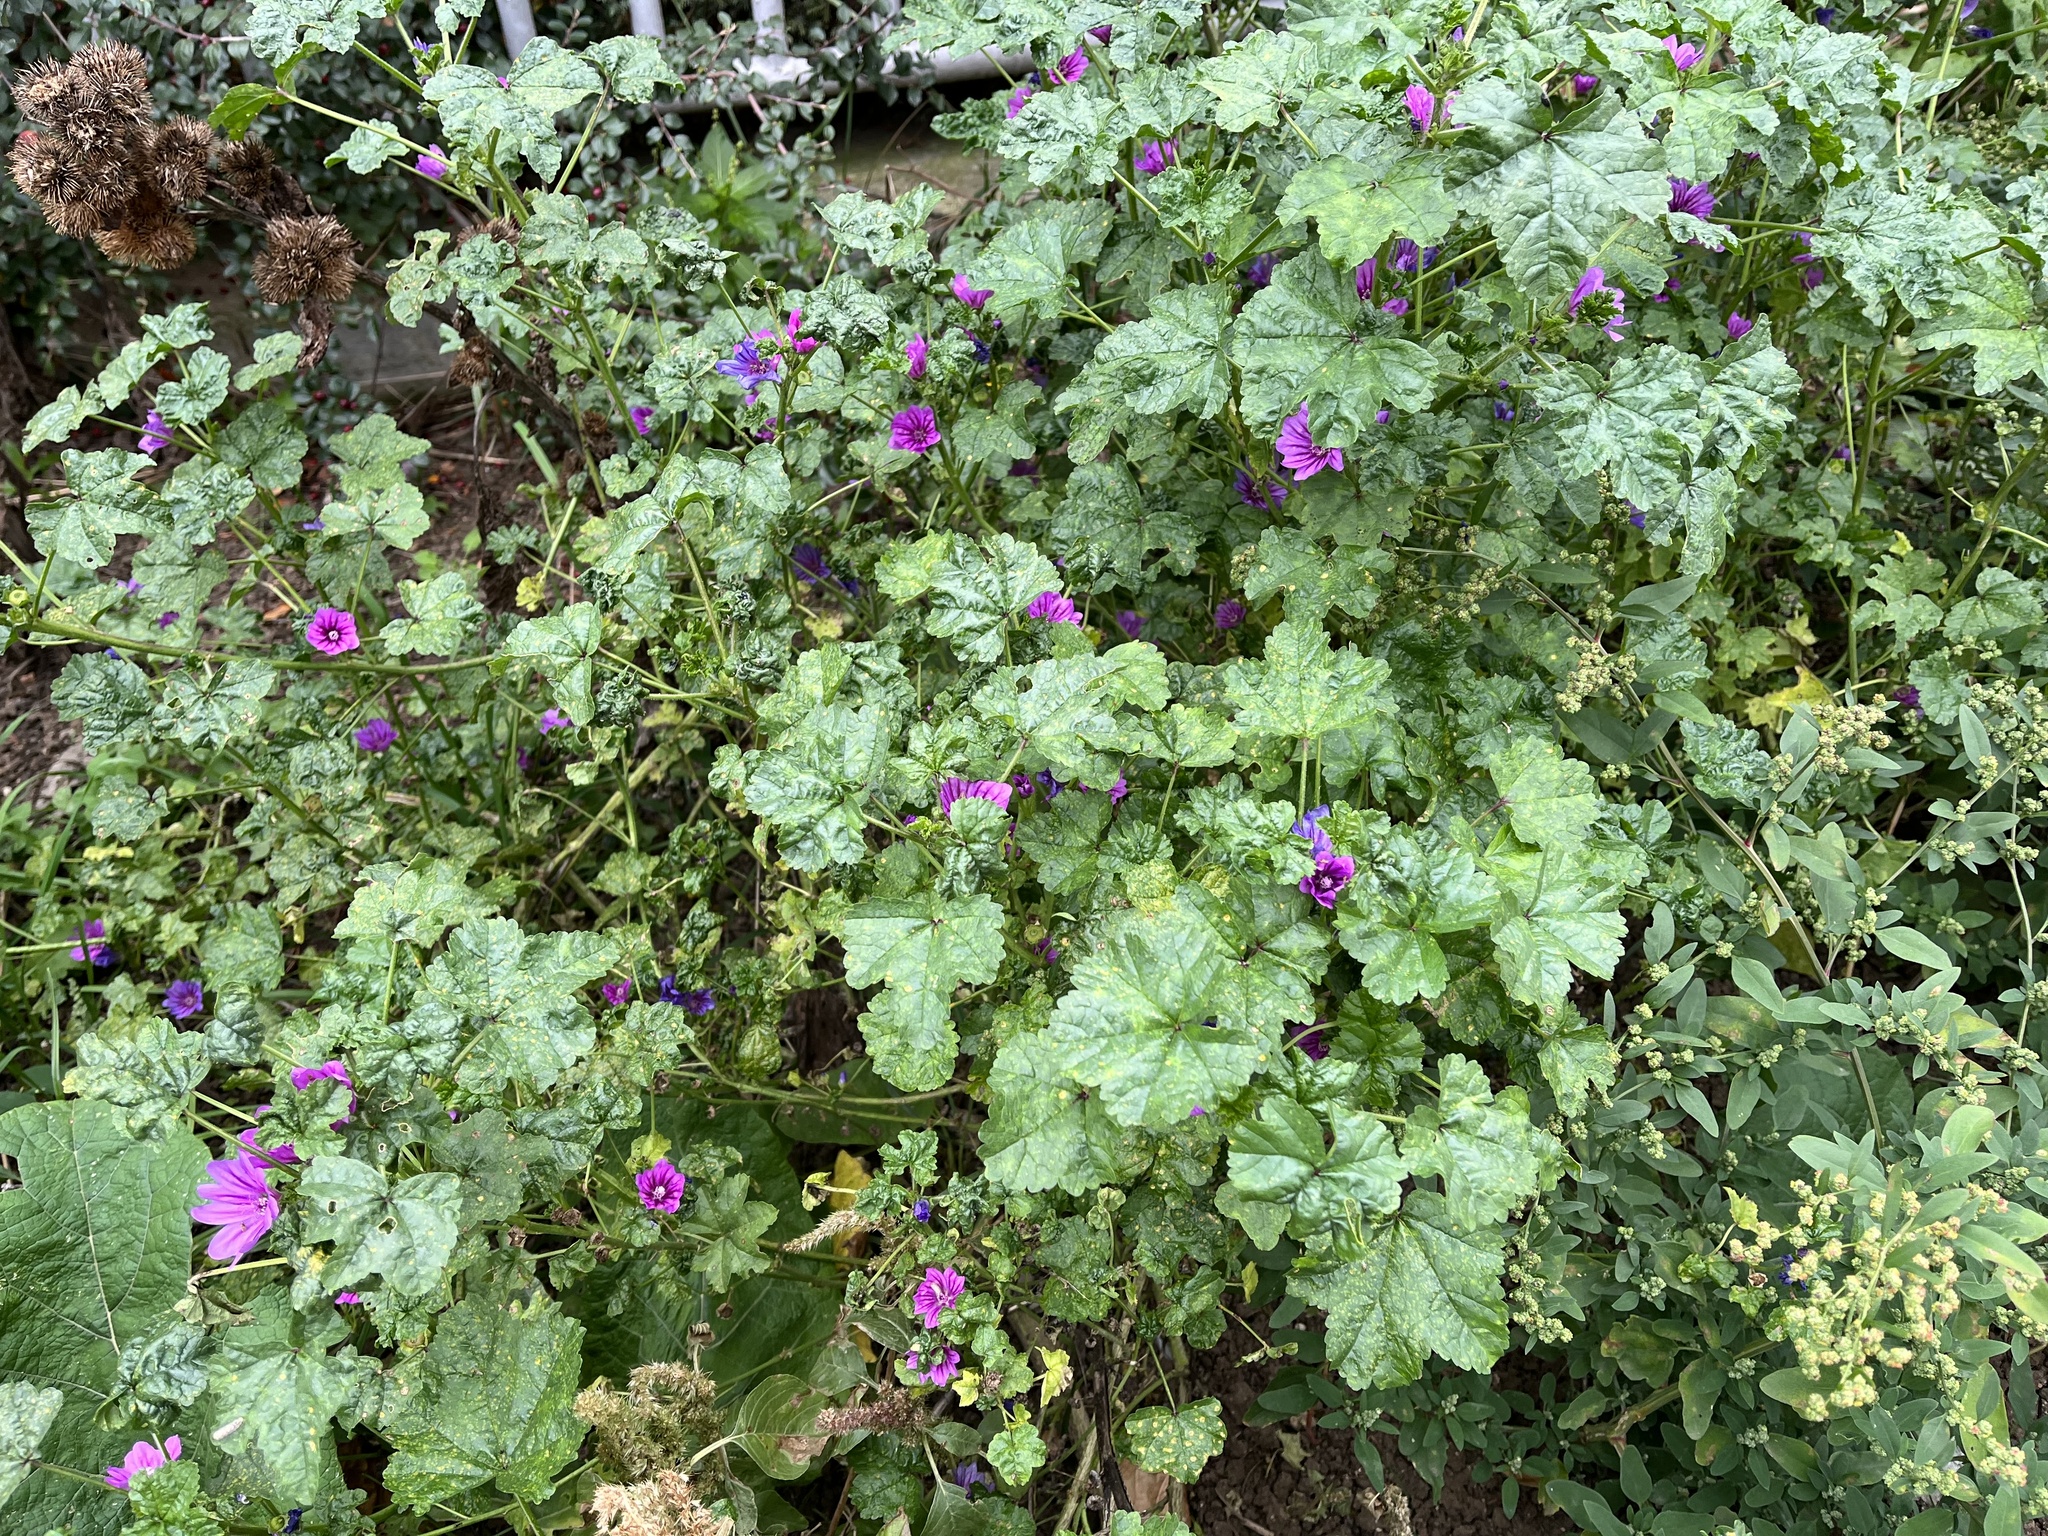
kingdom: Plantae
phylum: Tracheophyta
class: Magnoliopsida
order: Malvales
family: Malvaceae
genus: Malva
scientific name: Malva sylvestris
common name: Common mallow
